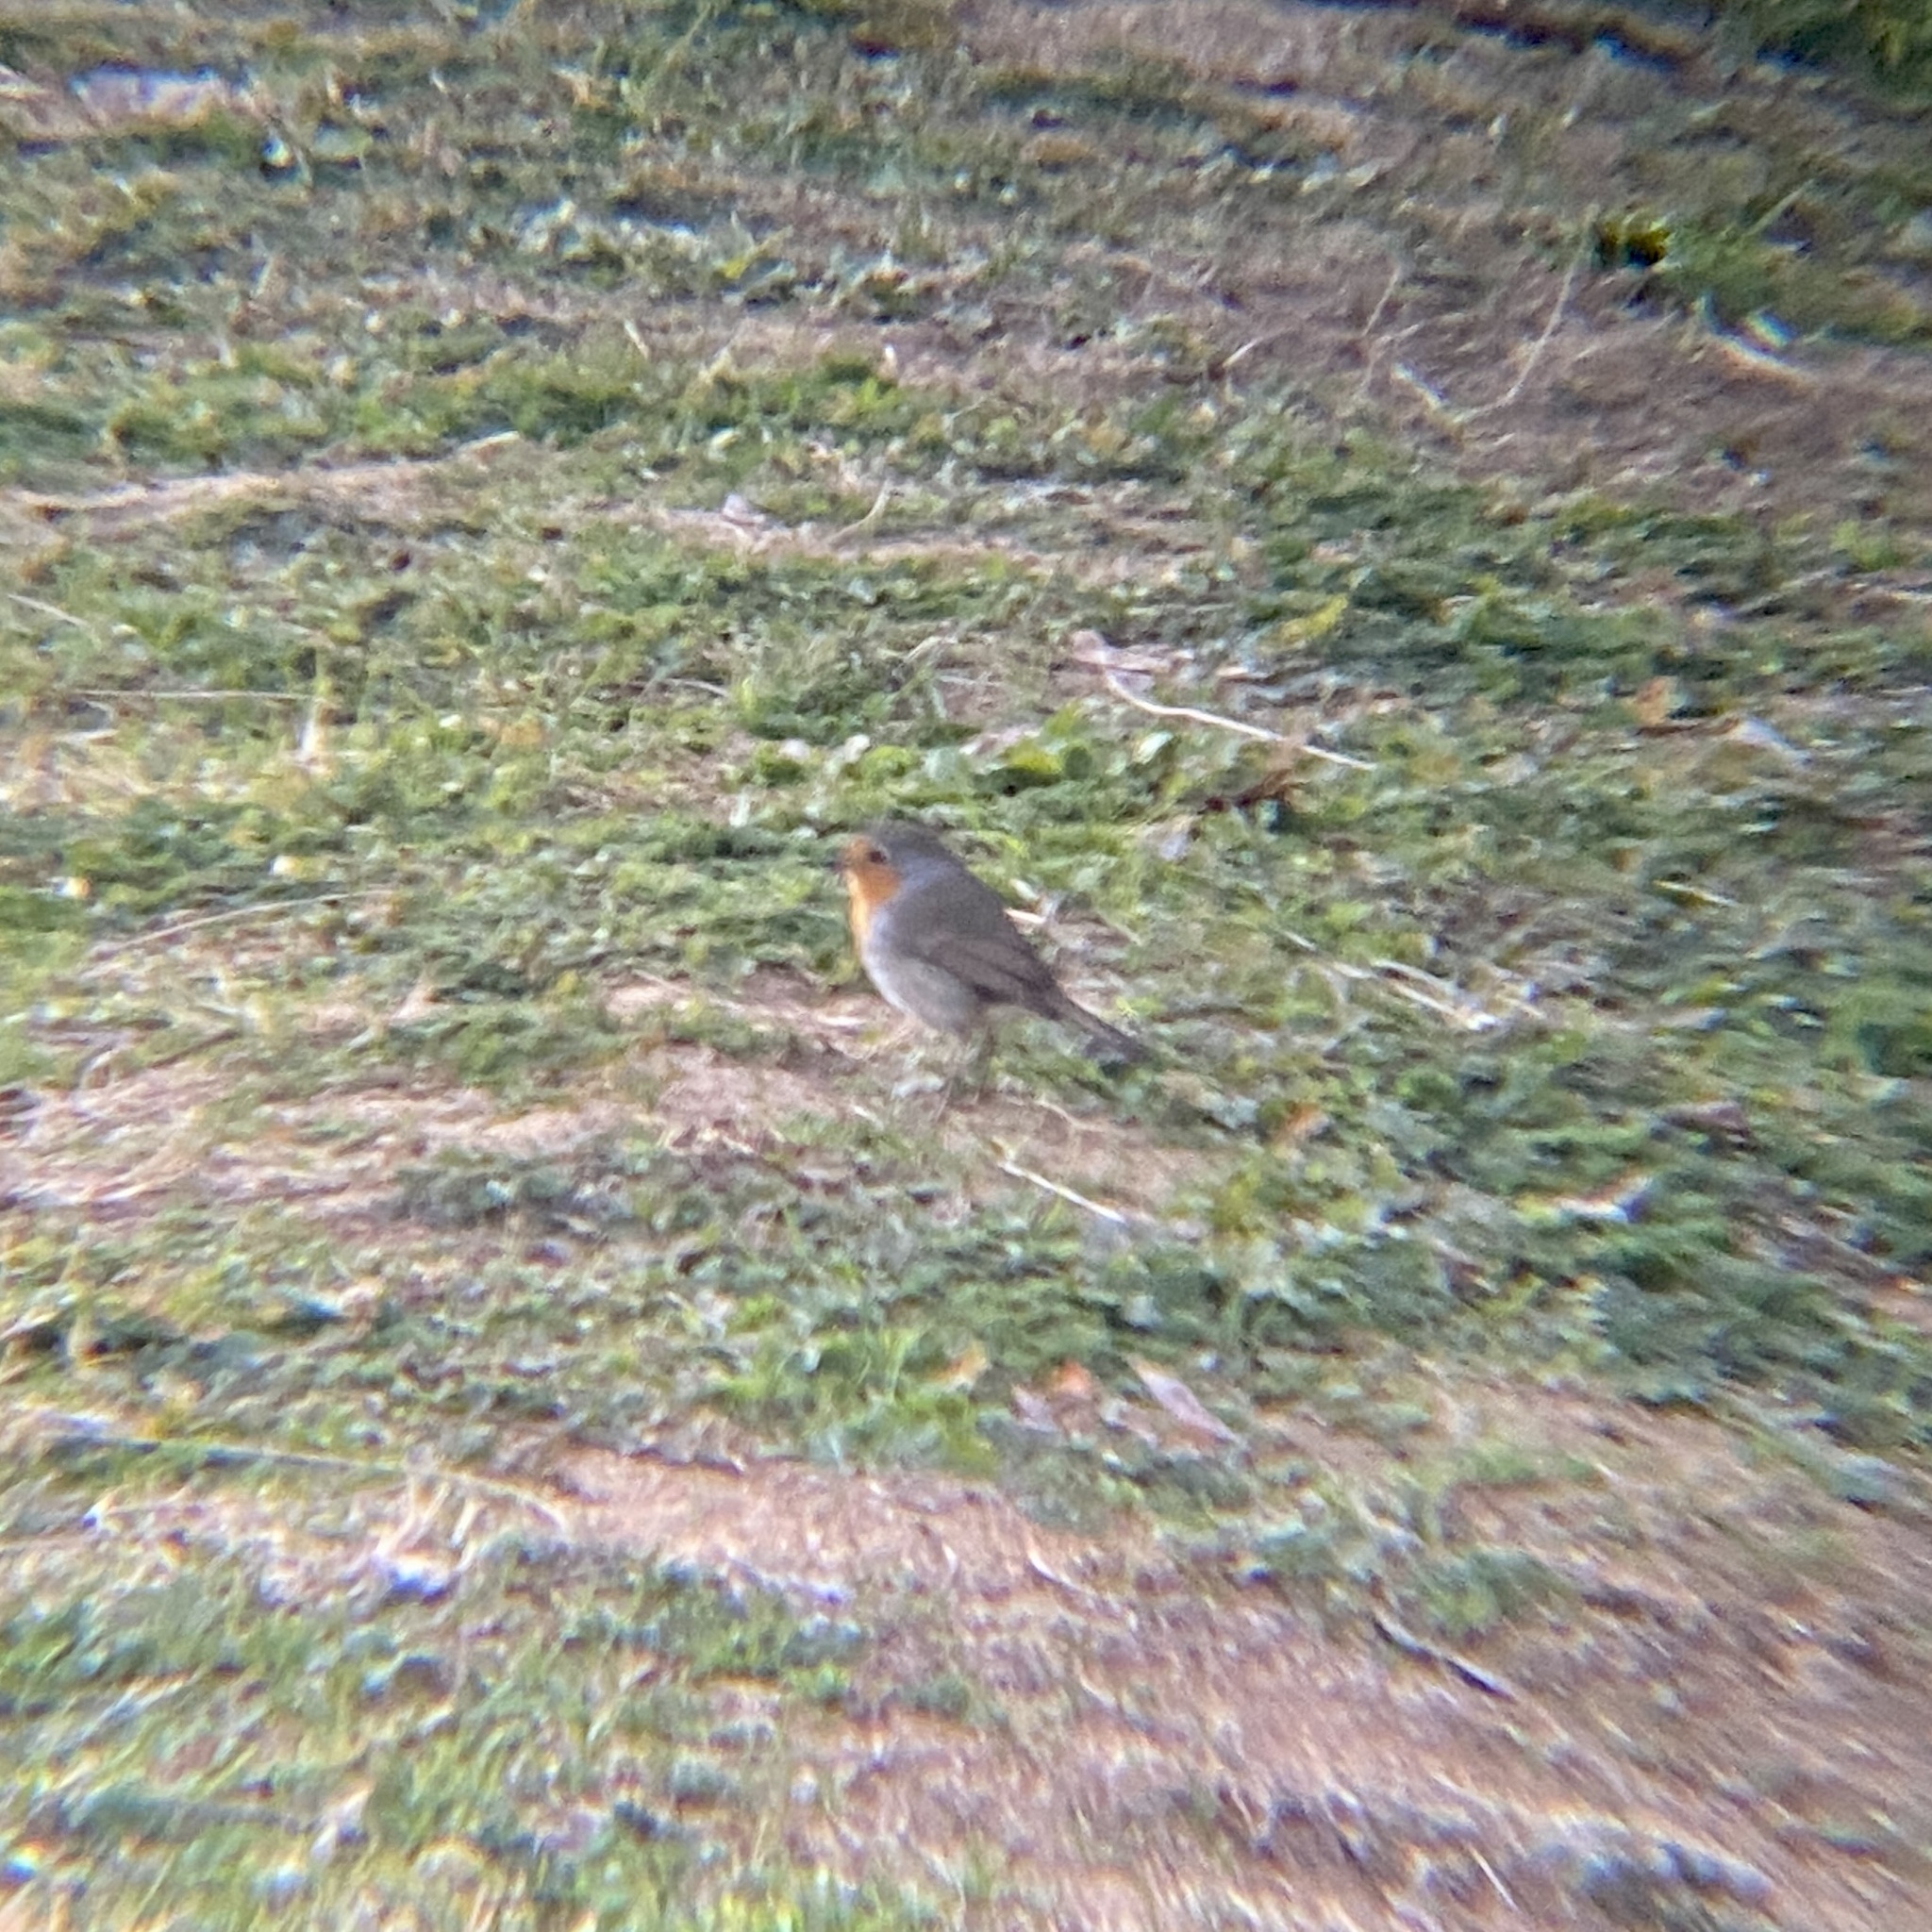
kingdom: Animalia
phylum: Chordata
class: Aves
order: Passeriformes
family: Muscicapidae
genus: Erithacus
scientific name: Erithacus rubecula
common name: European robin
